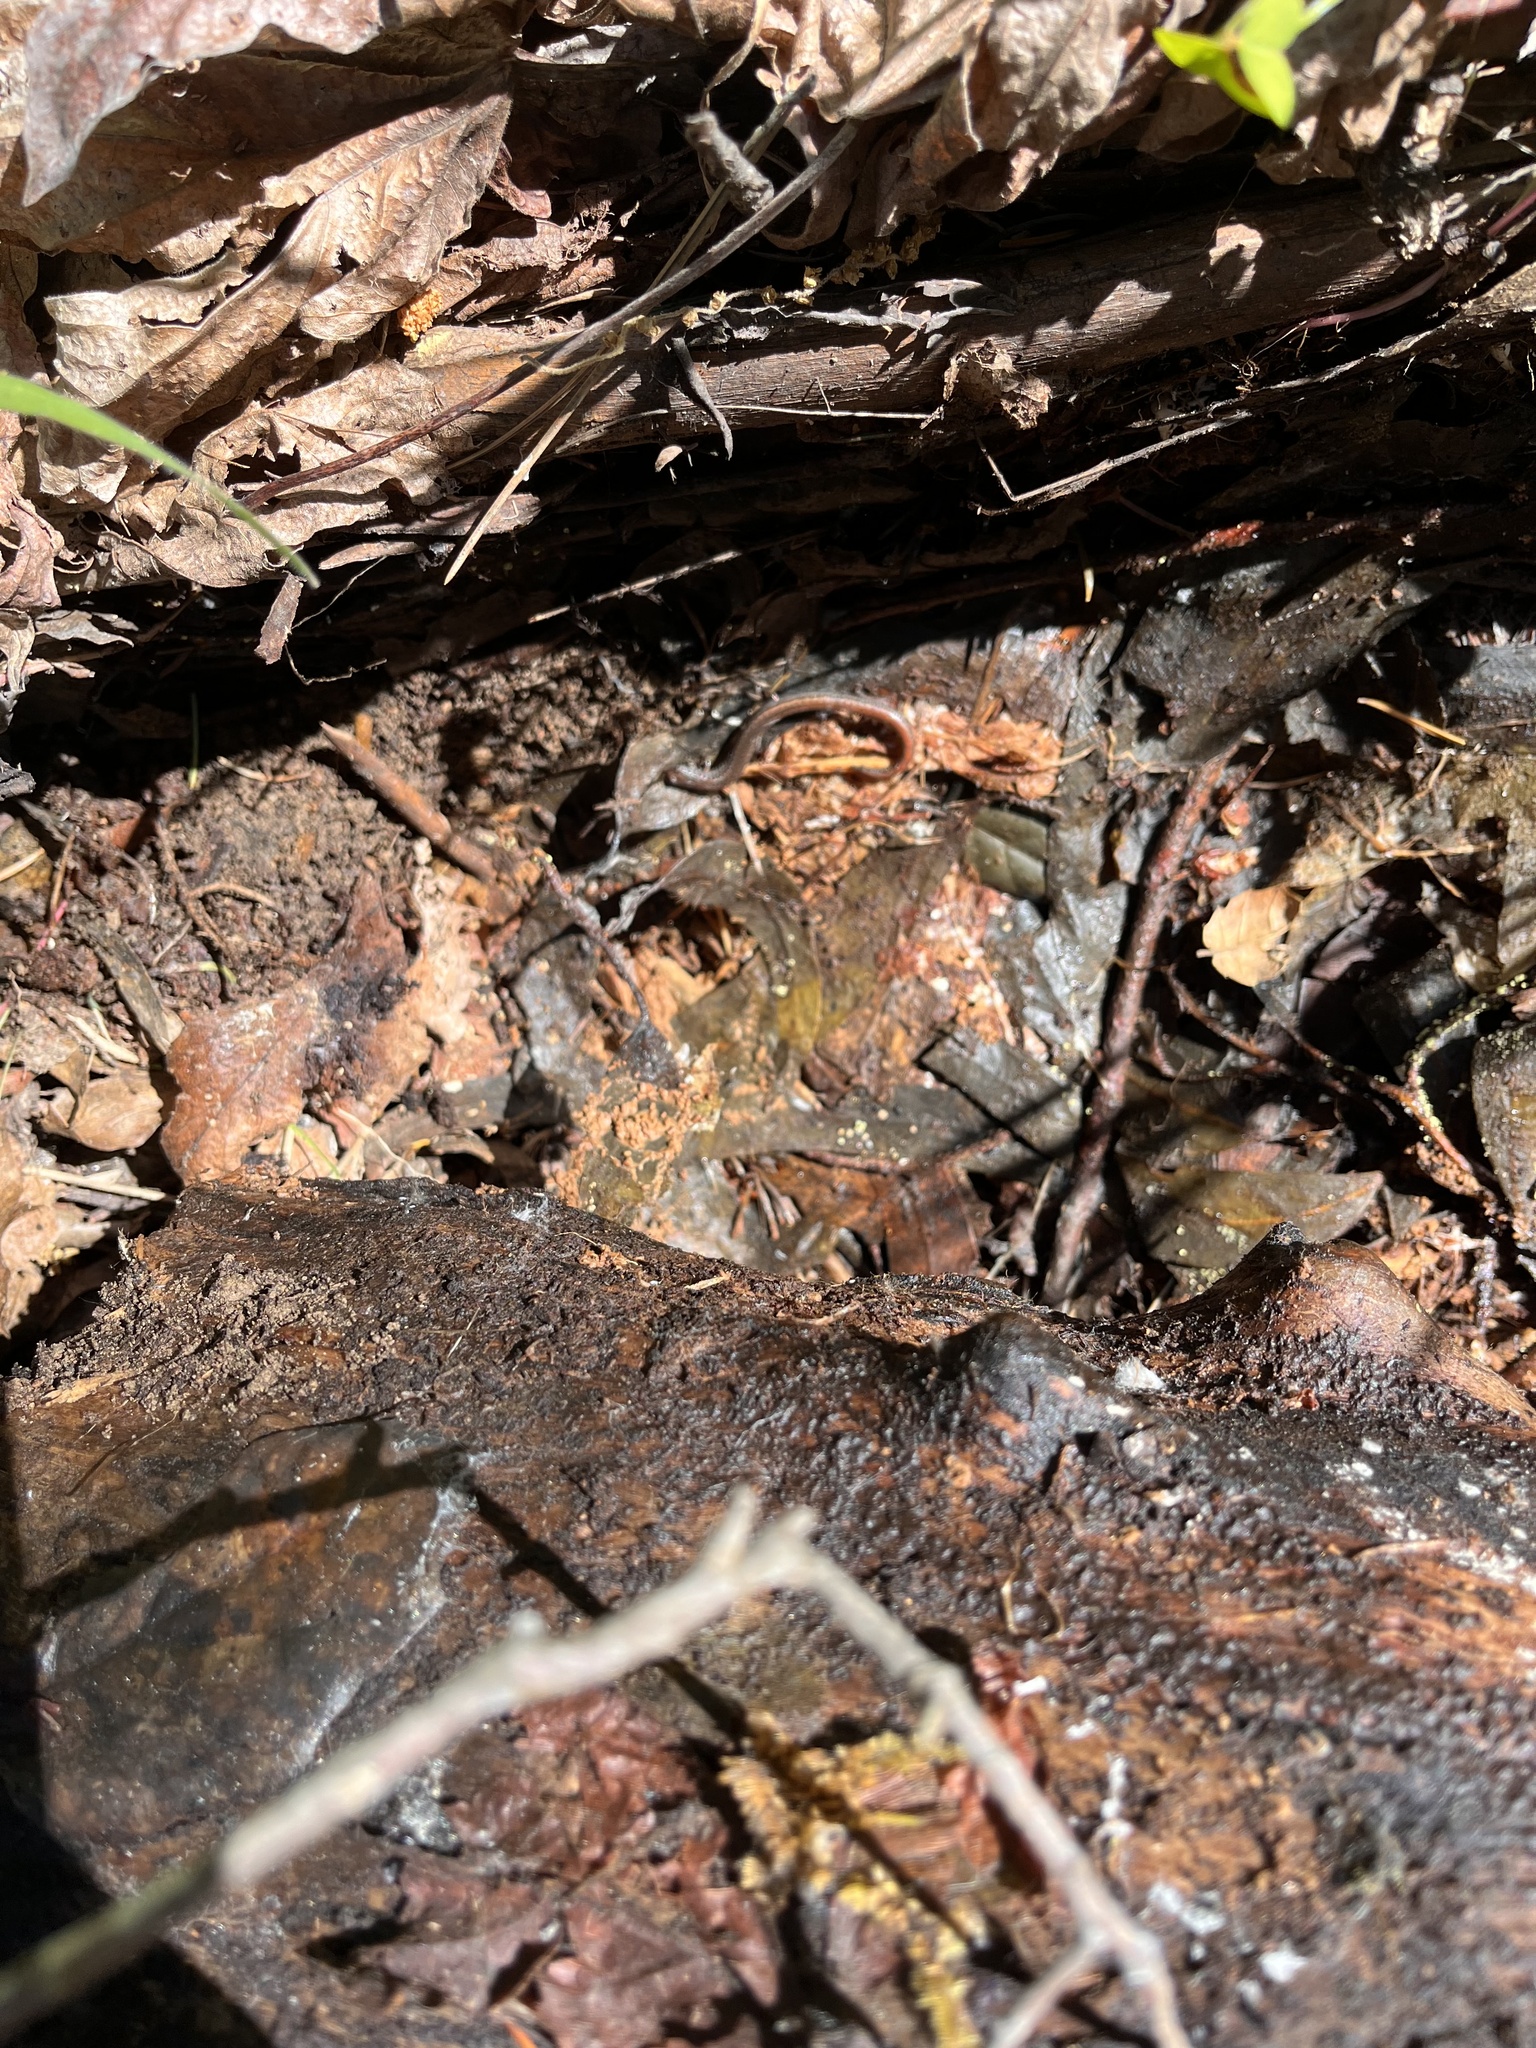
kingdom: Animalia
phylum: Chordata
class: Amphibia
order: Caudata
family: Plethodontidae
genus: Batrachoseps
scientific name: Batrachoseps attenuatus
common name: California slender salamander
